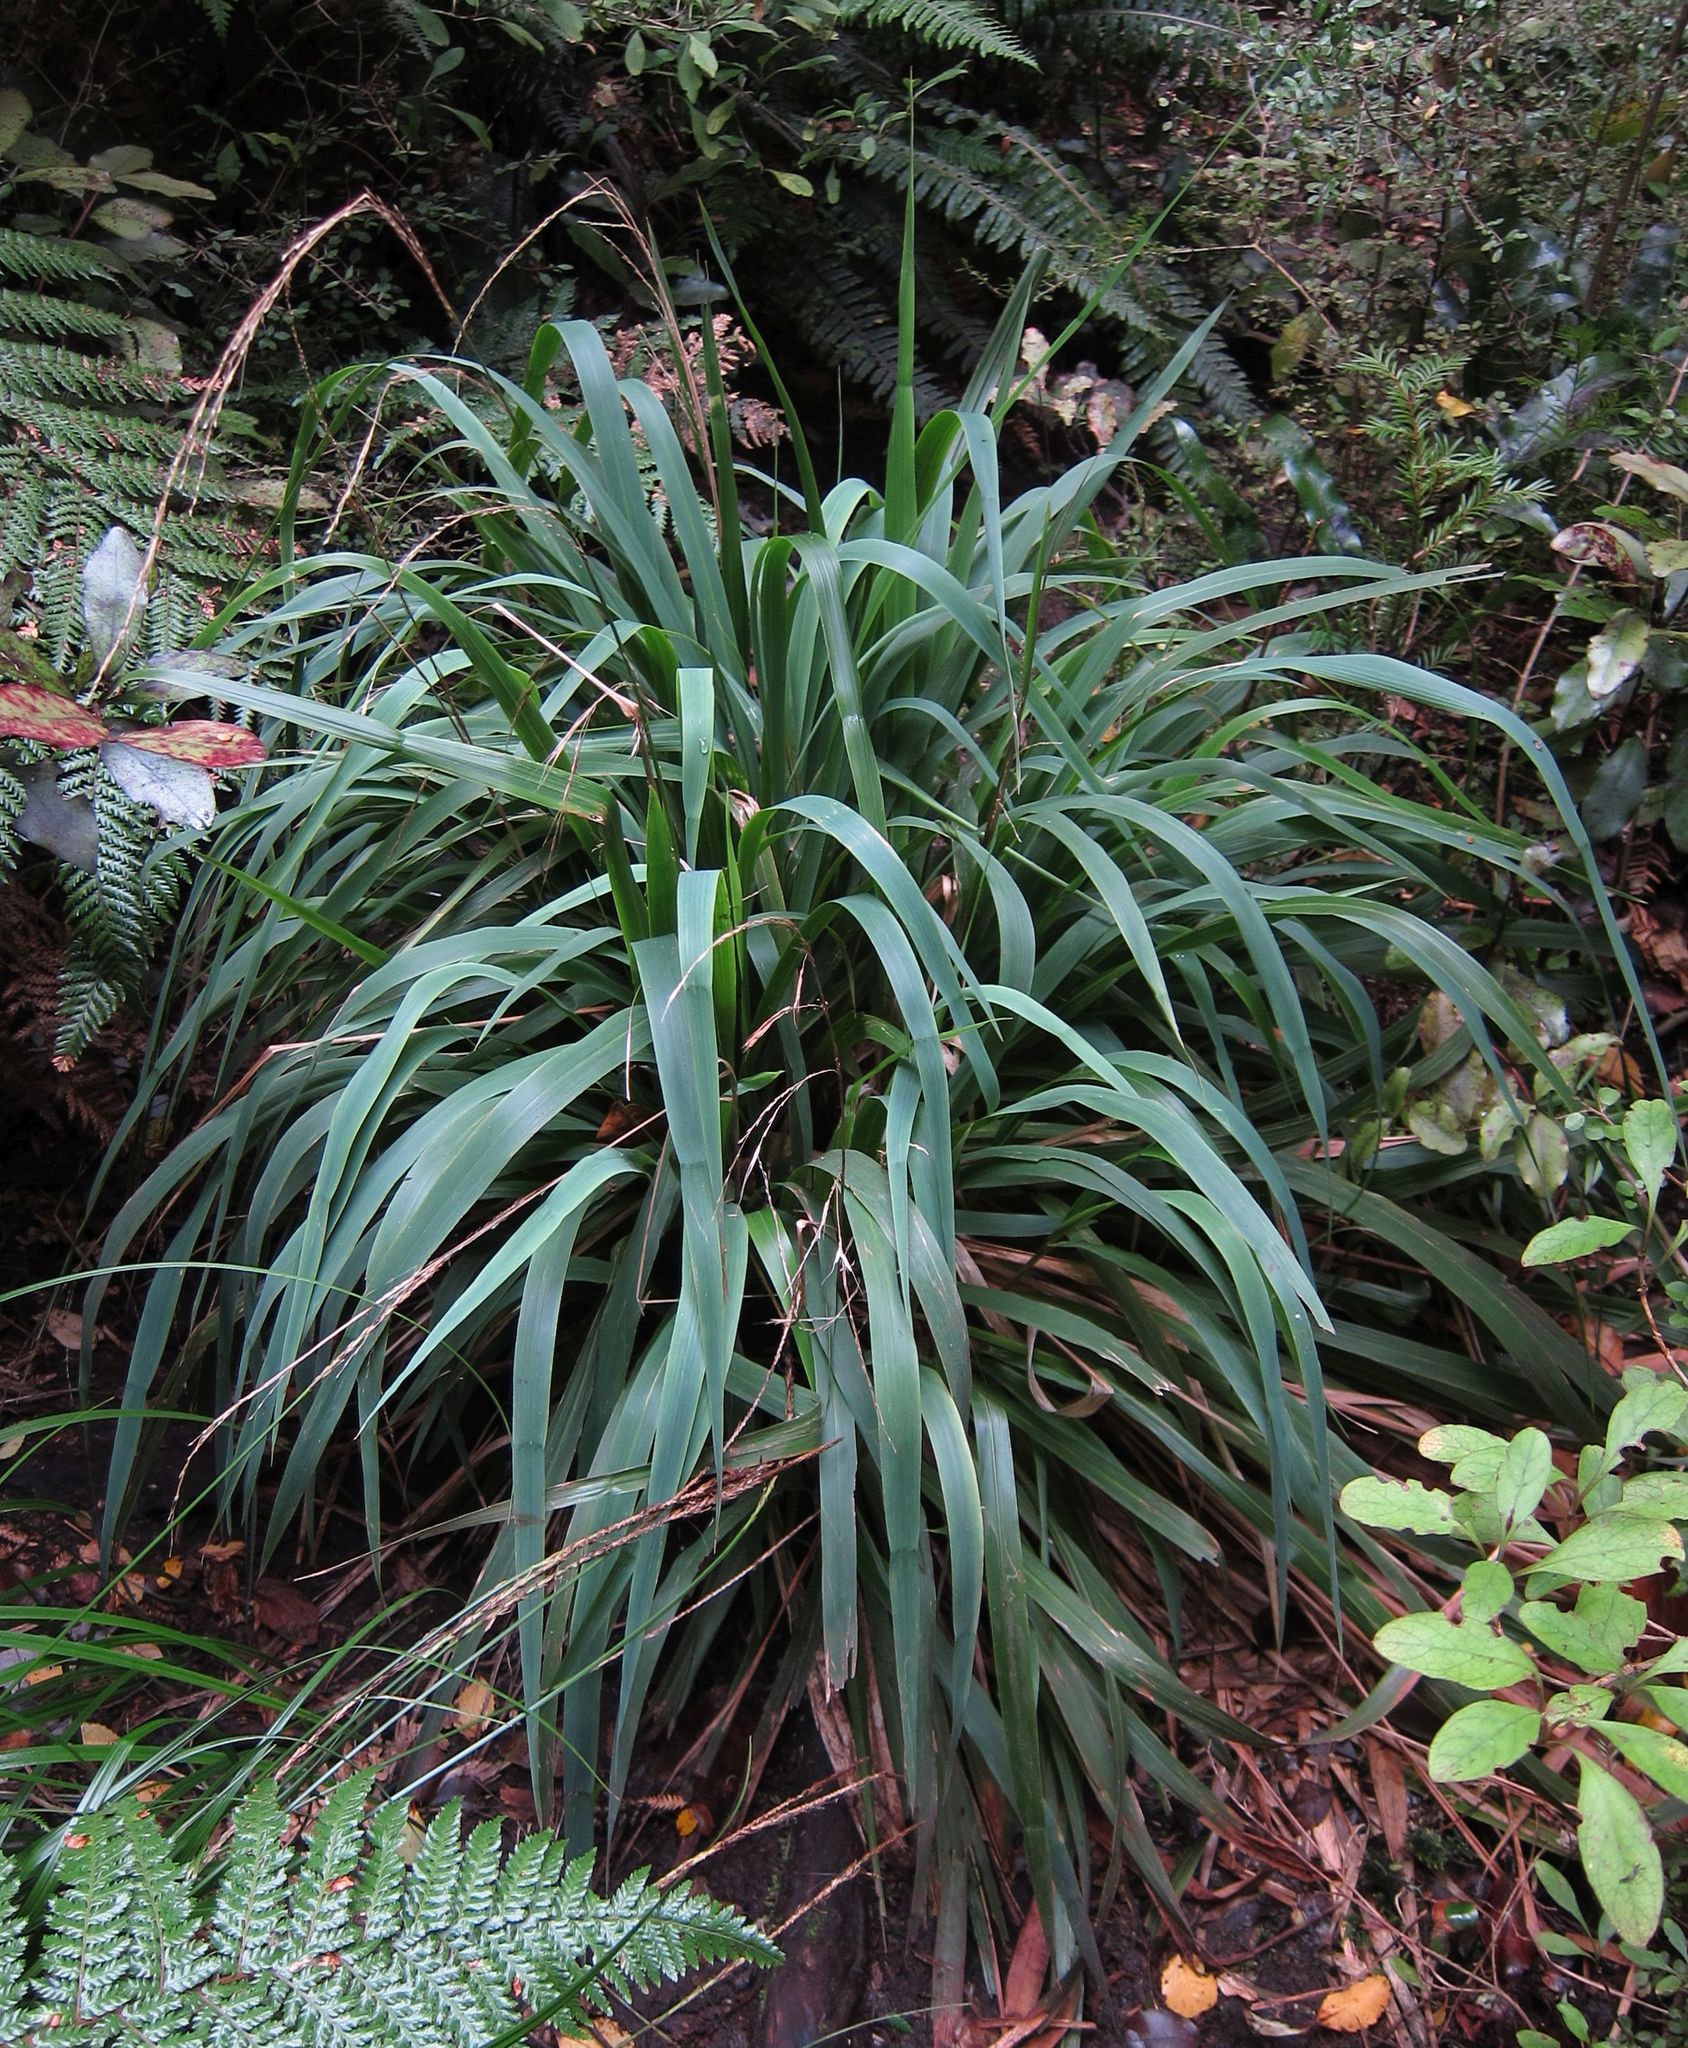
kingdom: Plantae
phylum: Tracheophyta
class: Liliopsida
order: Poales
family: Poaceae
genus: Ehrharta
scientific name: Ehrharta diplax
